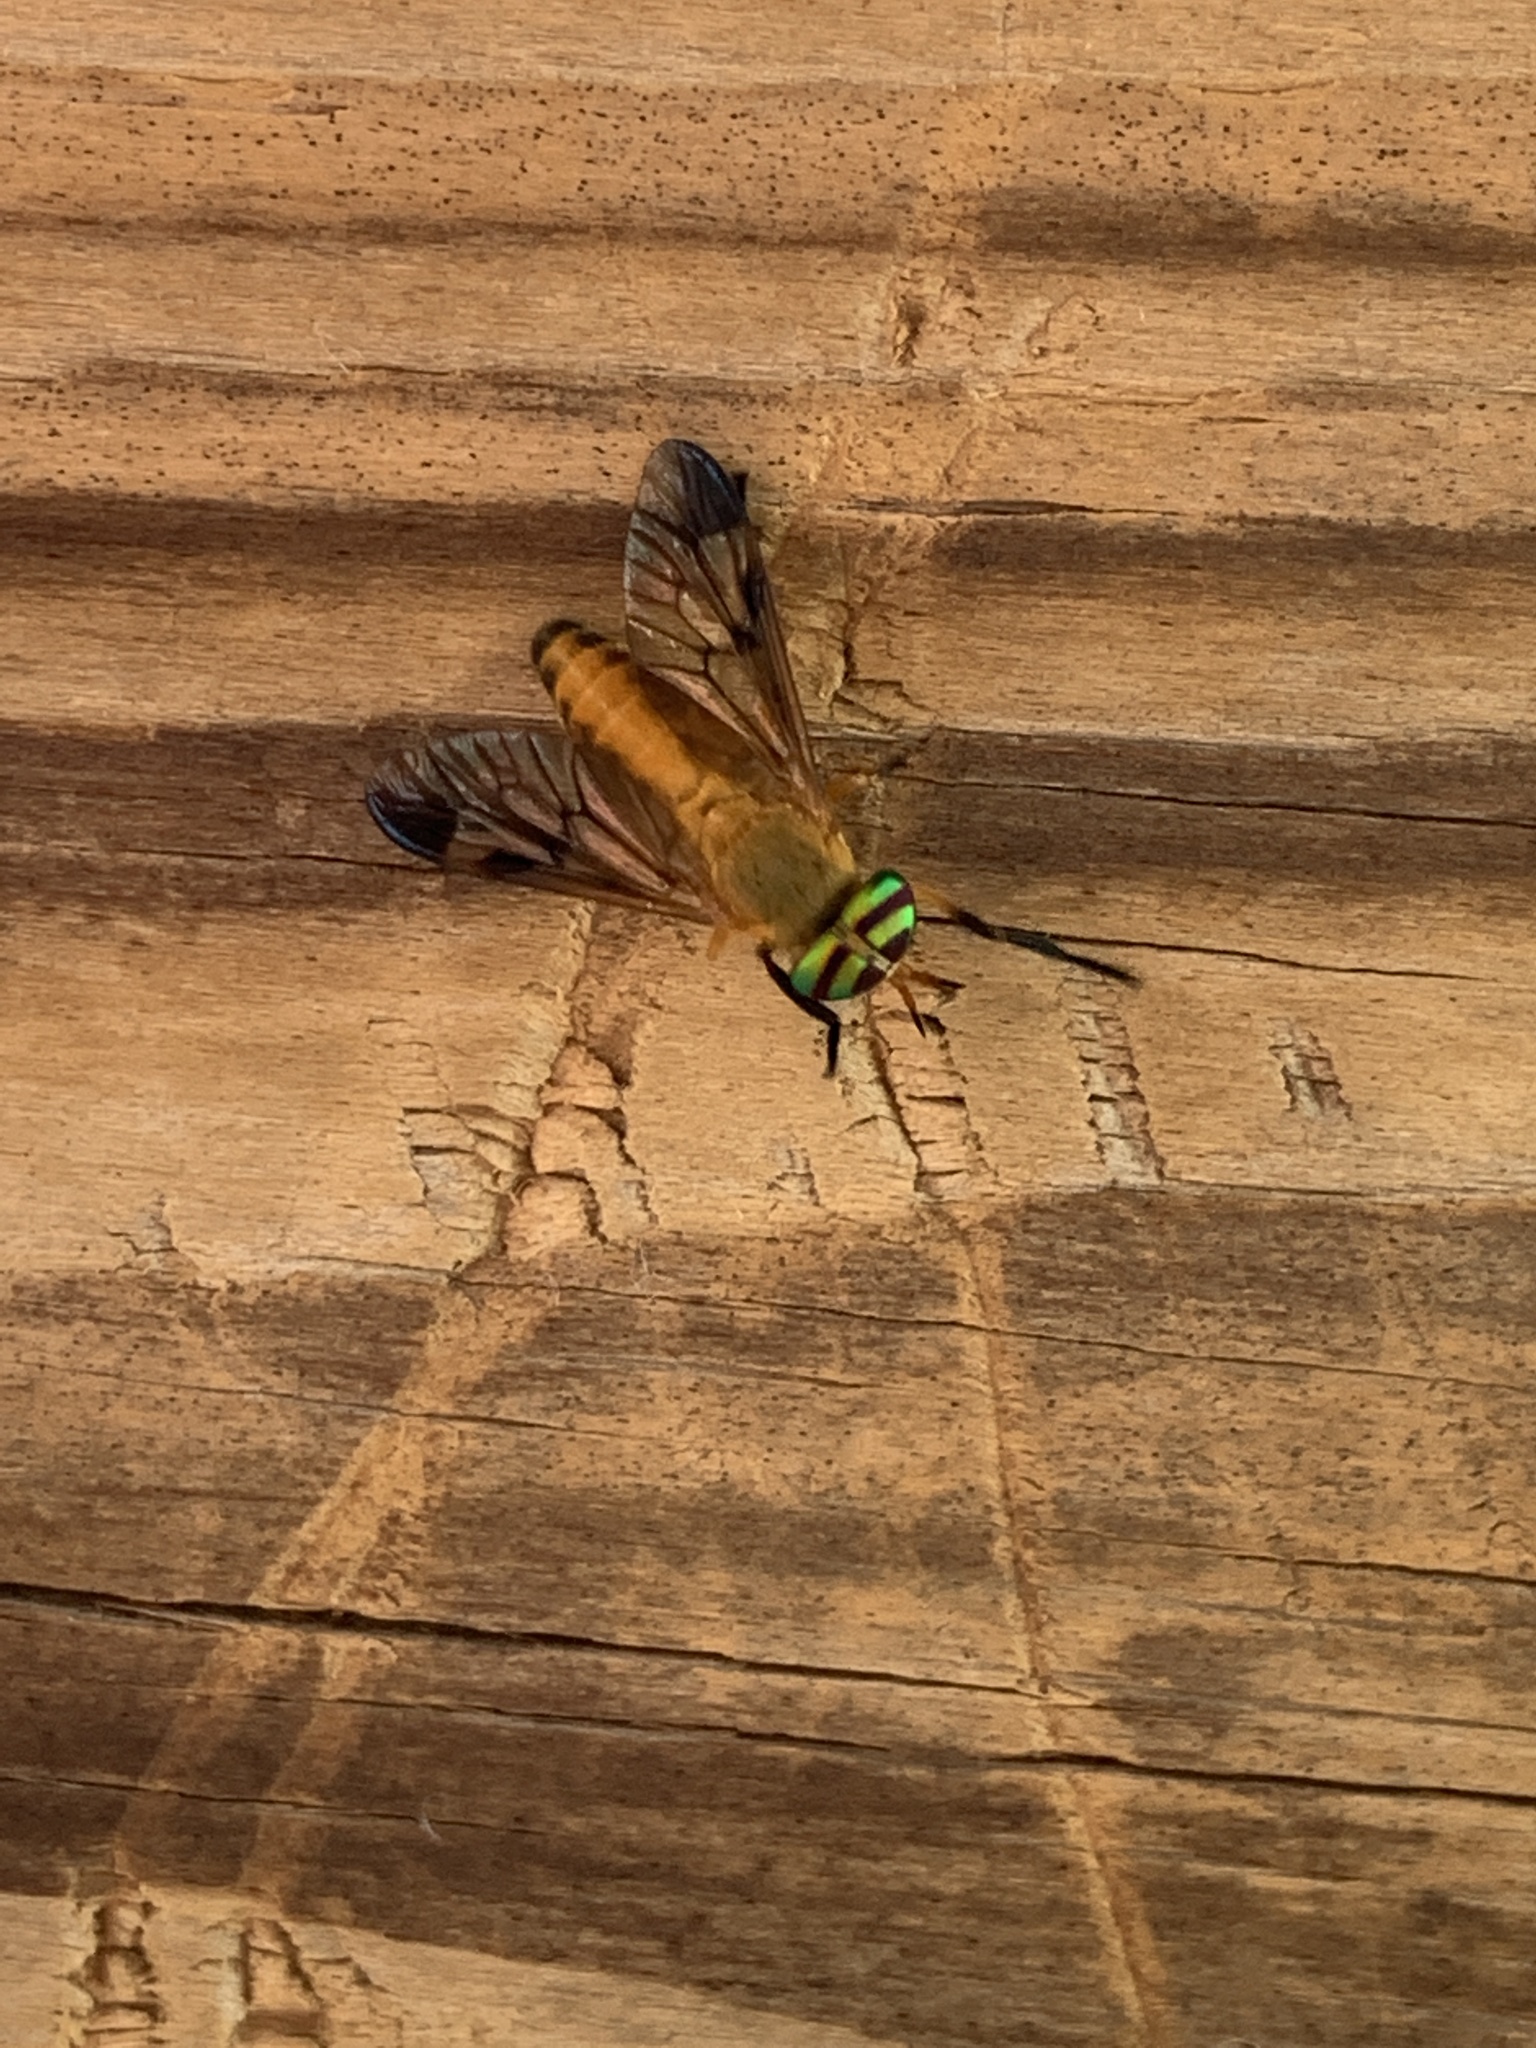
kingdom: Animalia
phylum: Arthropoda
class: Insecta
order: Diptera
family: Tabanidae
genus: Diachlorus
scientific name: Diachlorus ferrugatus
